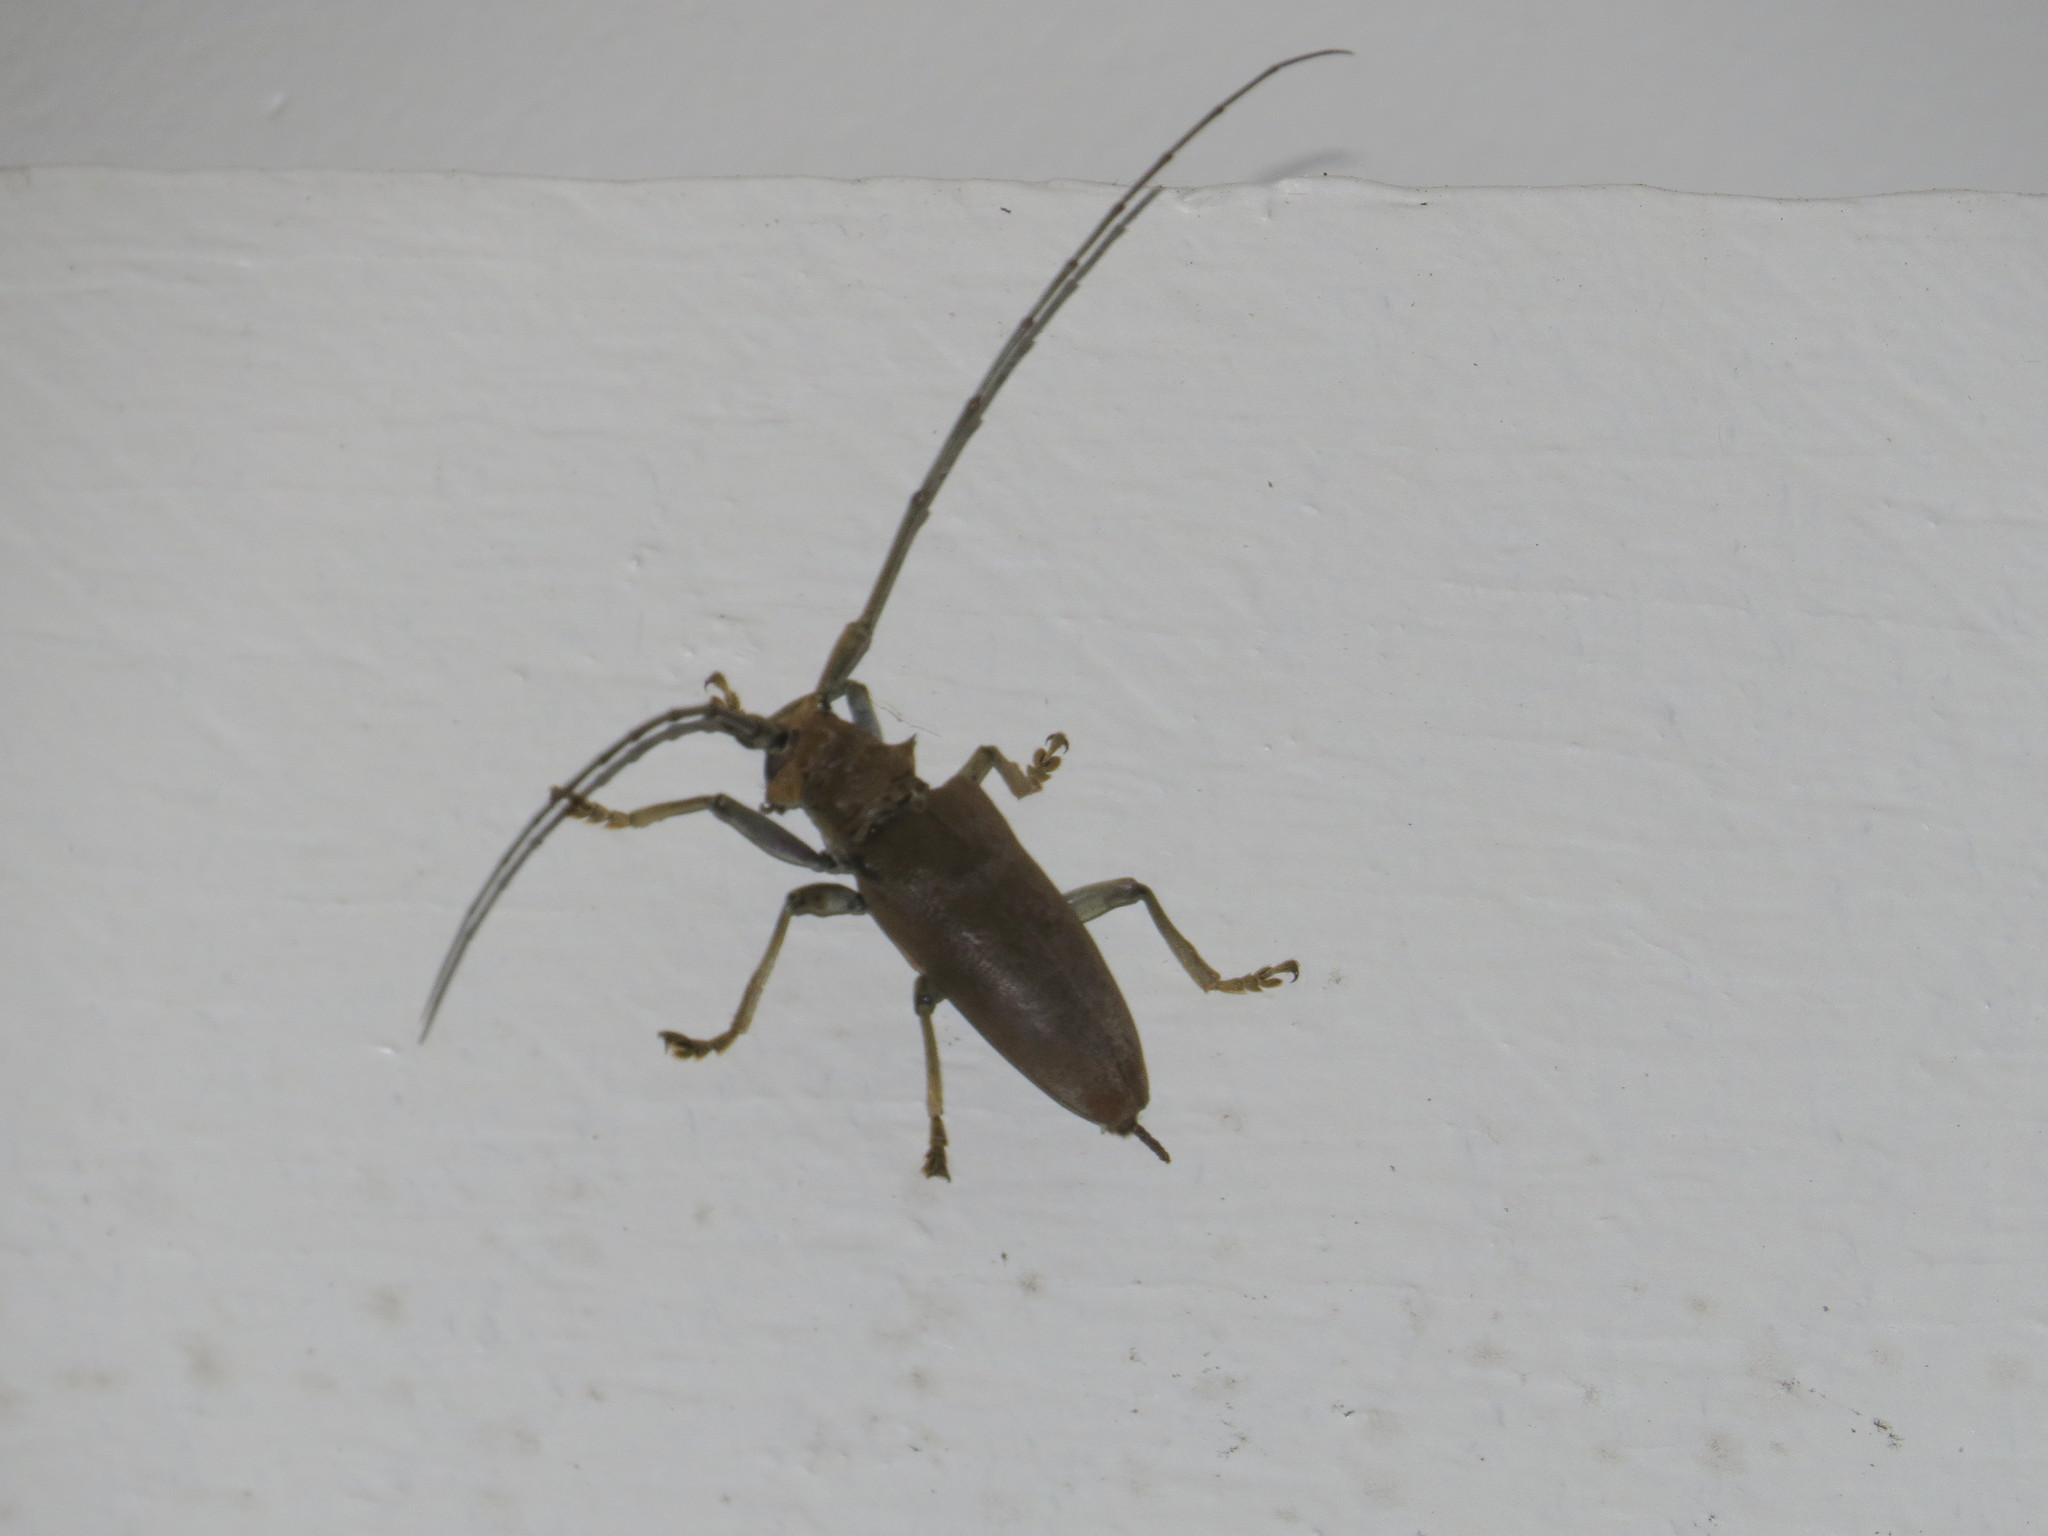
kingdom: Animalia
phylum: Arthropoda
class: Insecta
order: Coleoptera
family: Cerambycidae
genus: Acalolepta
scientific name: Acalolepta aesthetica
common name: Longhorned beetle
